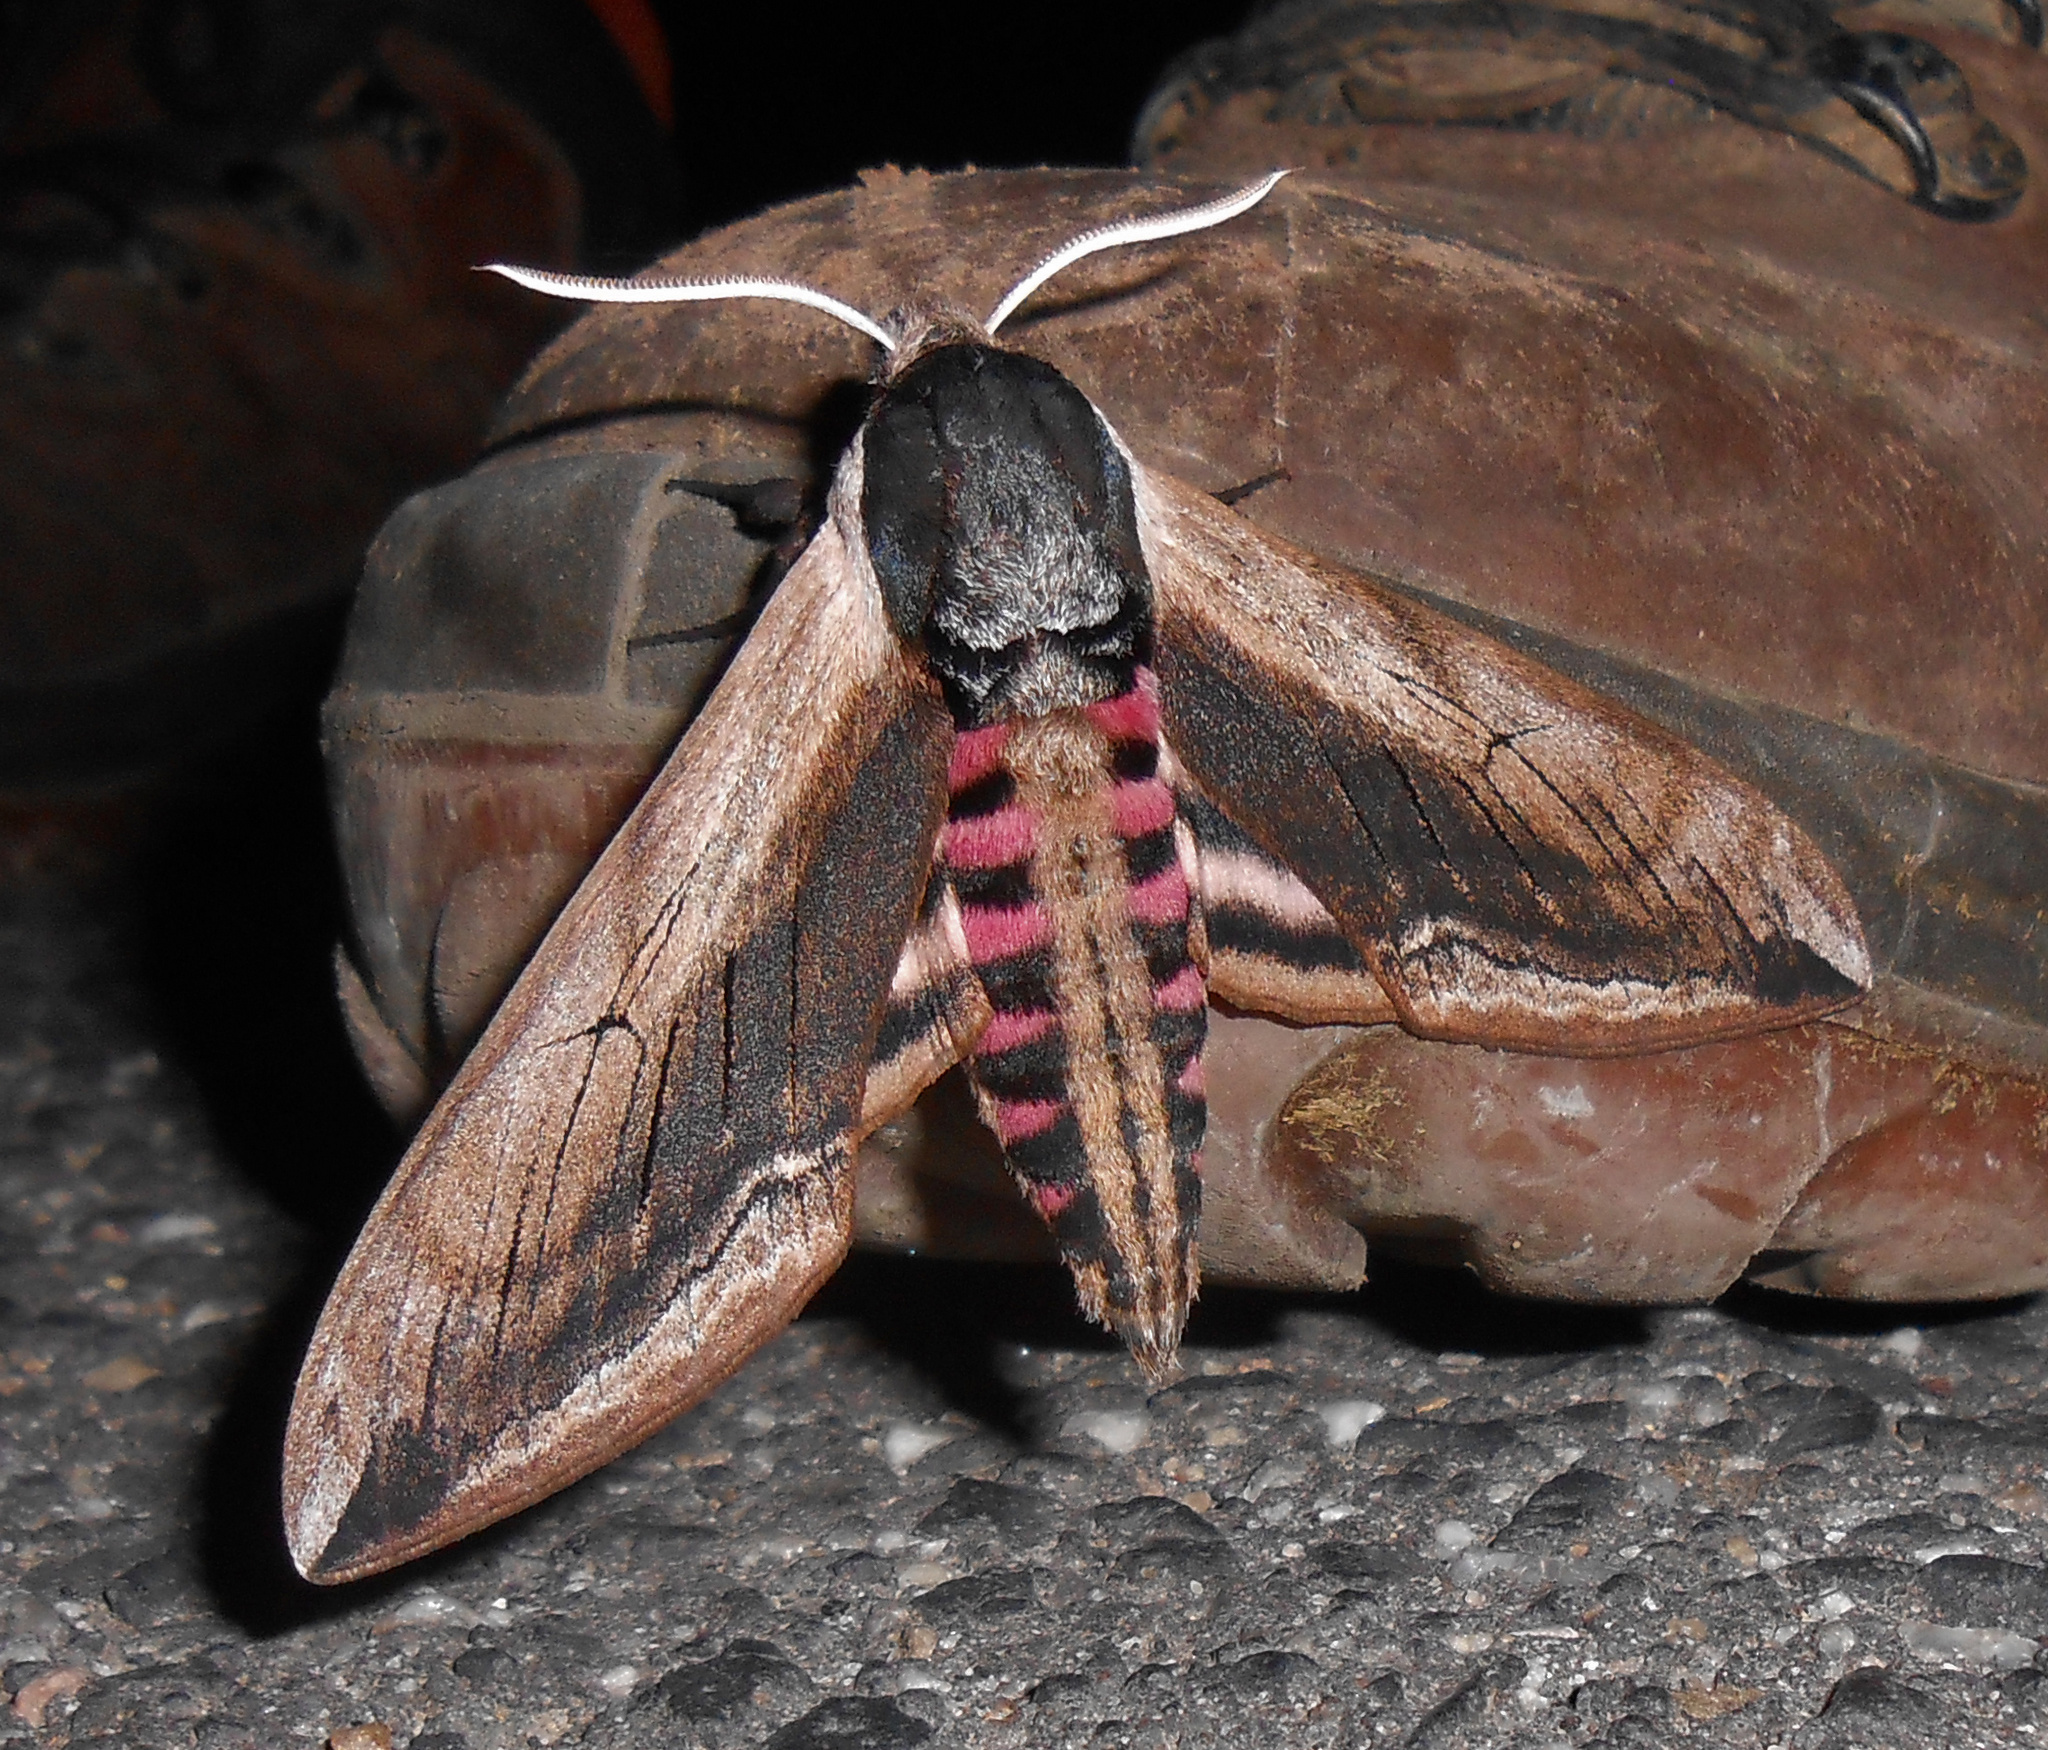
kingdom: Animalia
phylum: Arthropoda
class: Insecta
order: Lepidoptera
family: Sphingidae
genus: Sphinx
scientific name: Sphinx ligustri
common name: Privet hawk-moth
